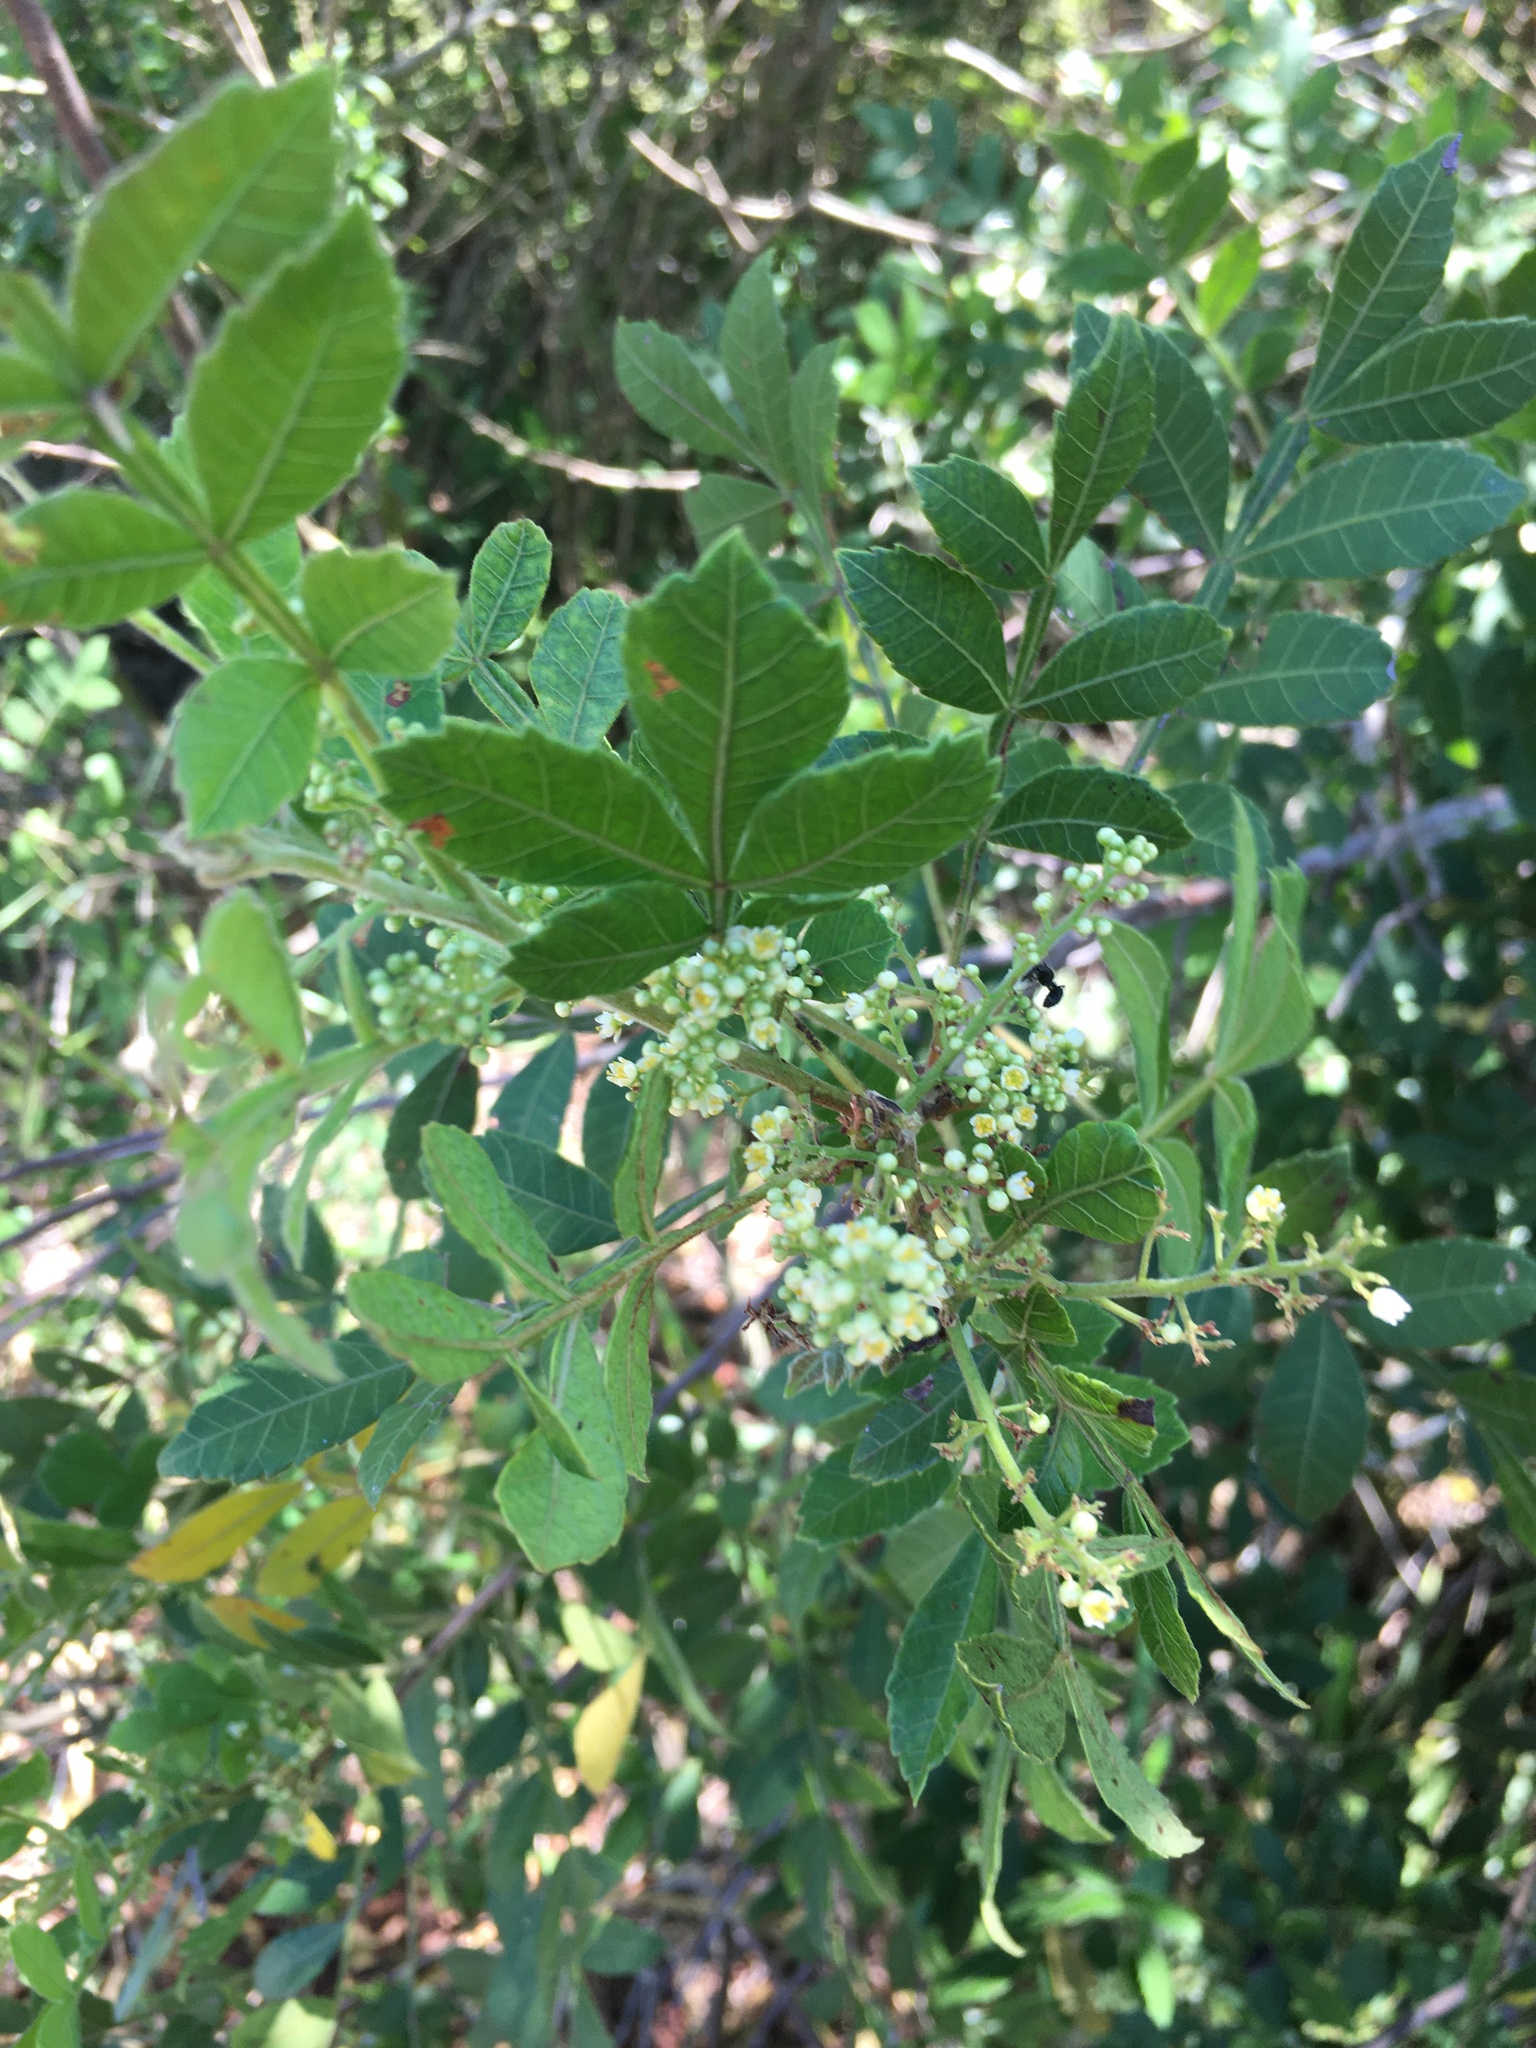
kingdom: Plantae
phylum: Tracheophyta
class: Magnoliopsida
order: Sapindales
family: Anacardiaceae
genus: Schinus
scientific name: Schinus terebinthifolia
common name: Brazilian peppertree
